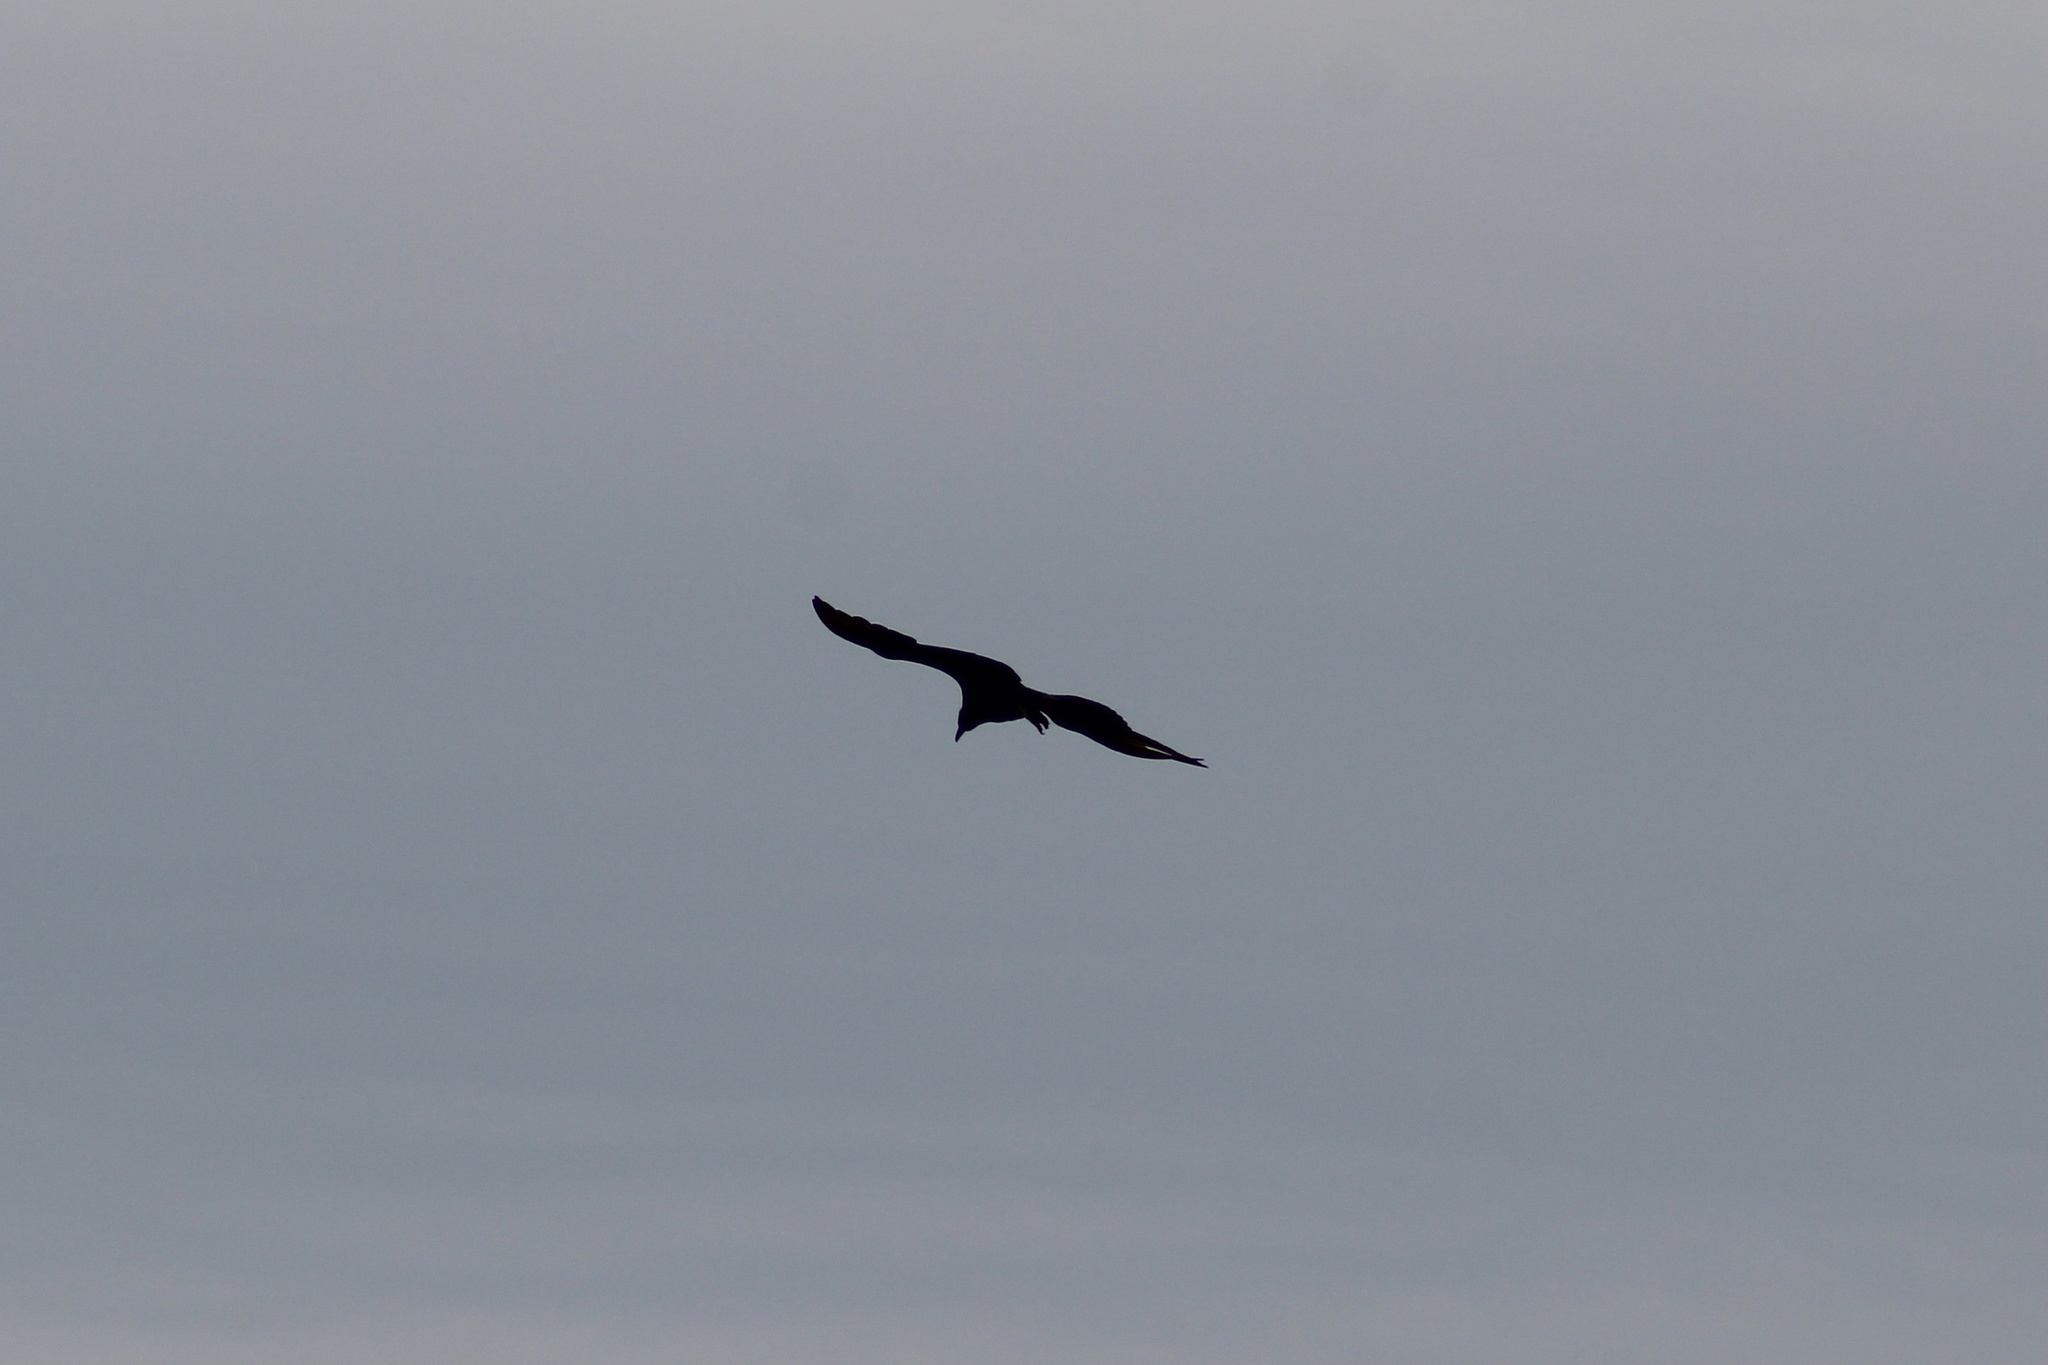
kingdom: Animalia
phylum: Chordata
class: Aves
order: Accipitriformes
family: Cathartidae
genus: Coragyps
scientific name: Coragyps atratus
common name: Black vulture
